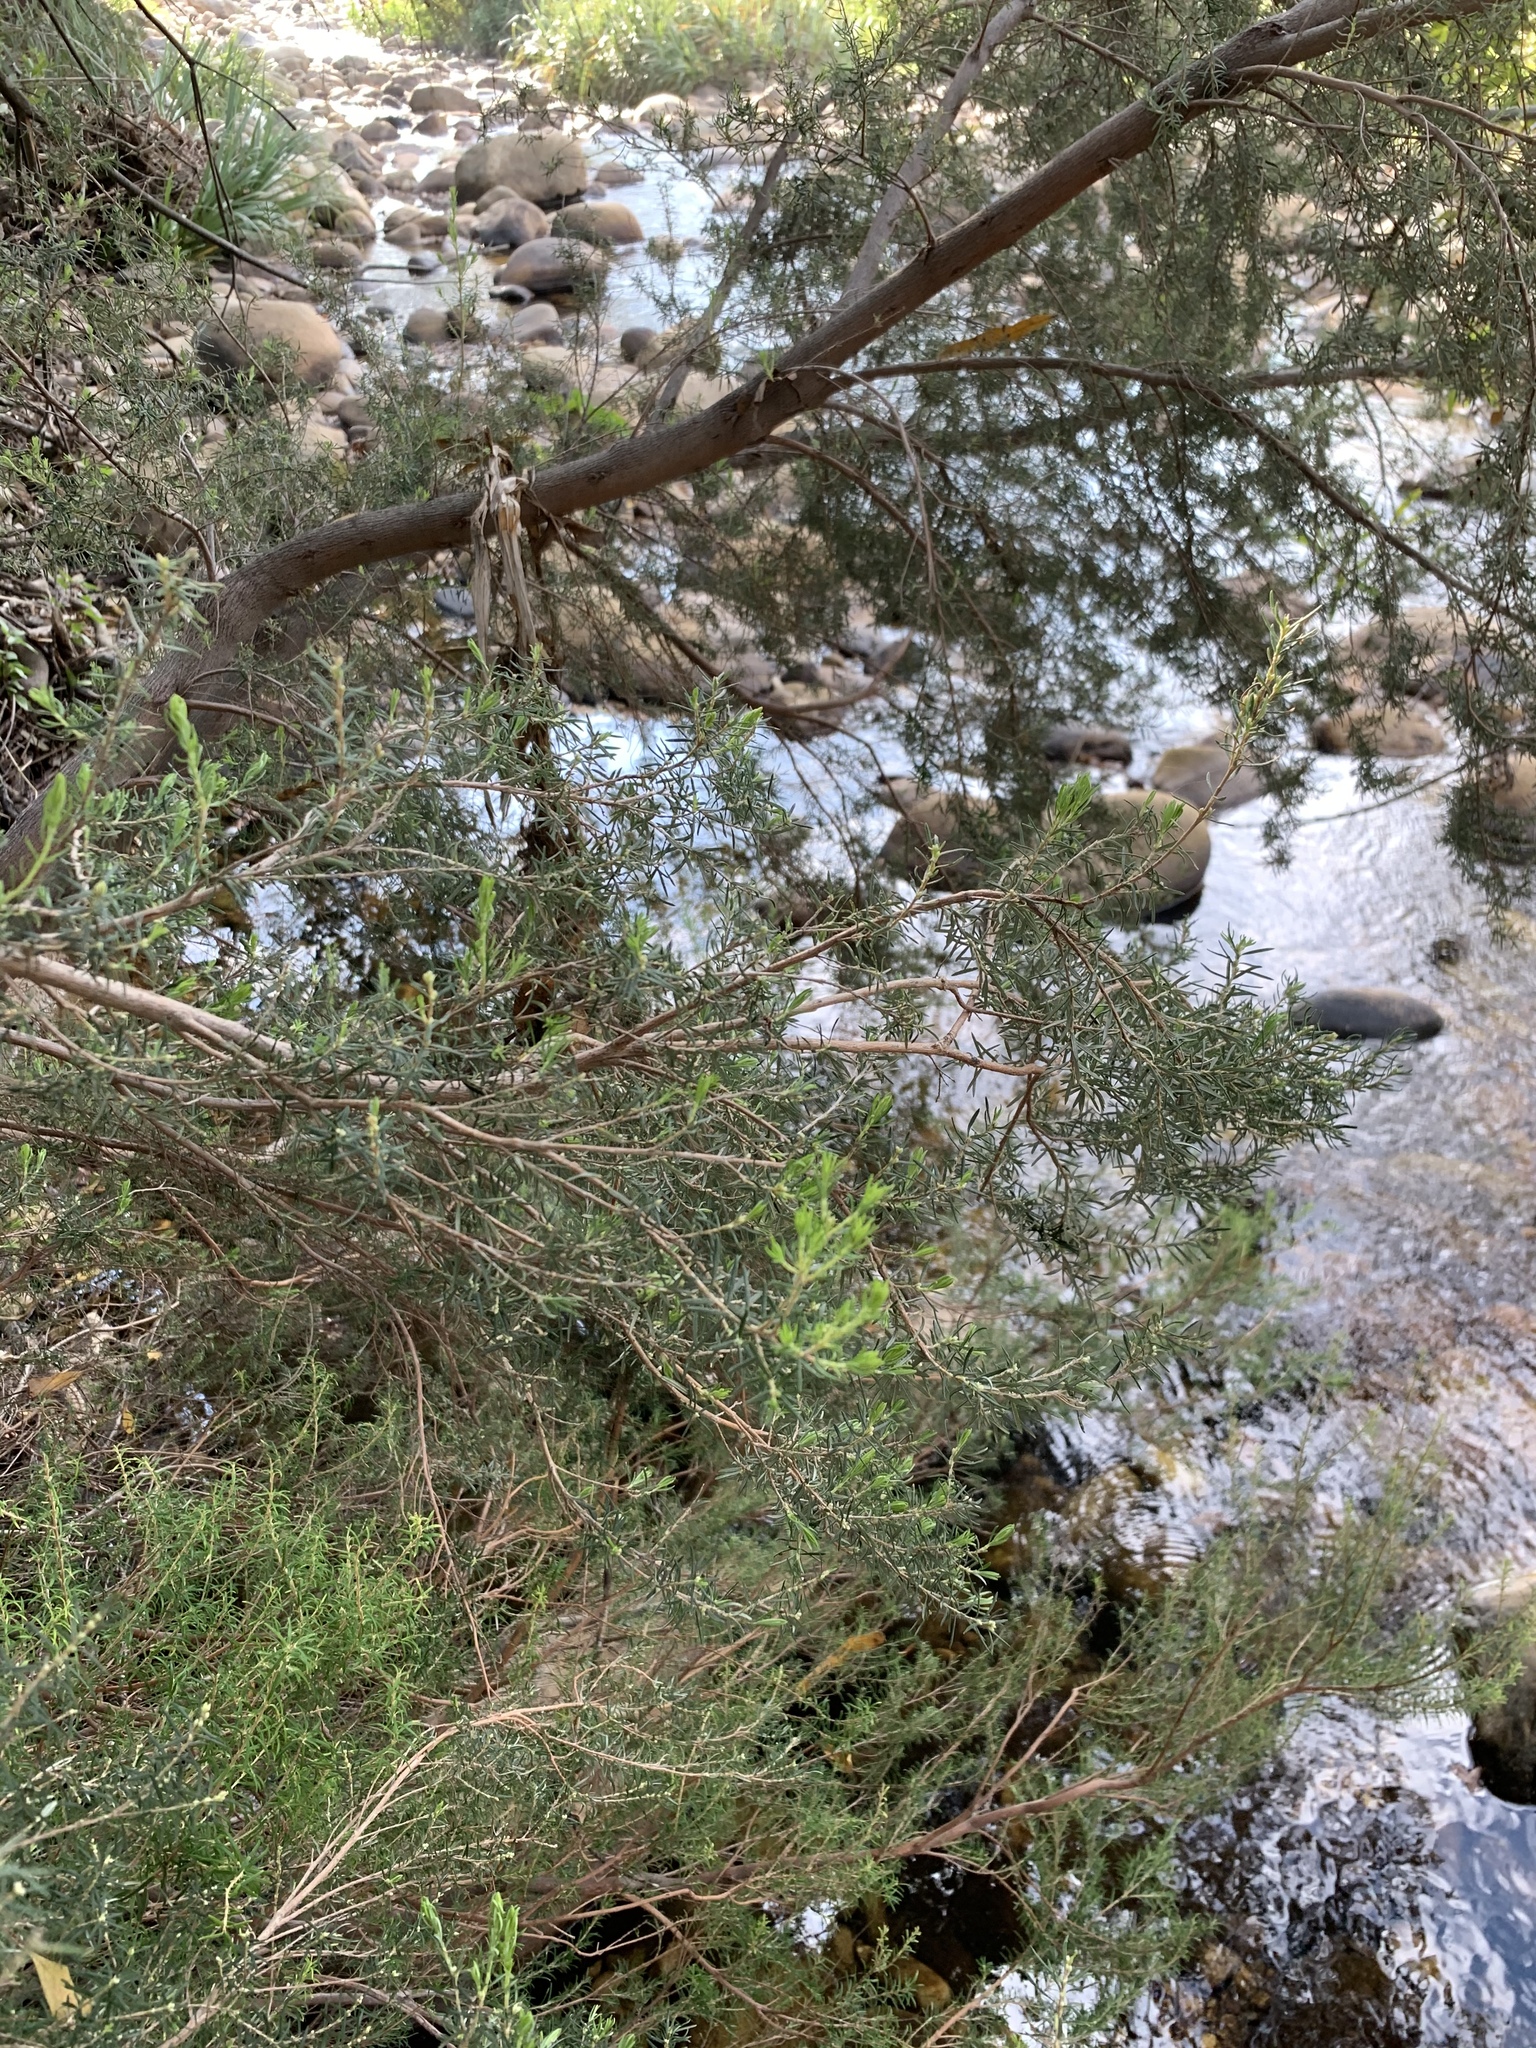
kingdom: Plantae
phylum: Tracheophyta
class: Magnoliopsida
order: Ericales
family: Ericaceae
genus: Erica
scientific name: Erica caffra
